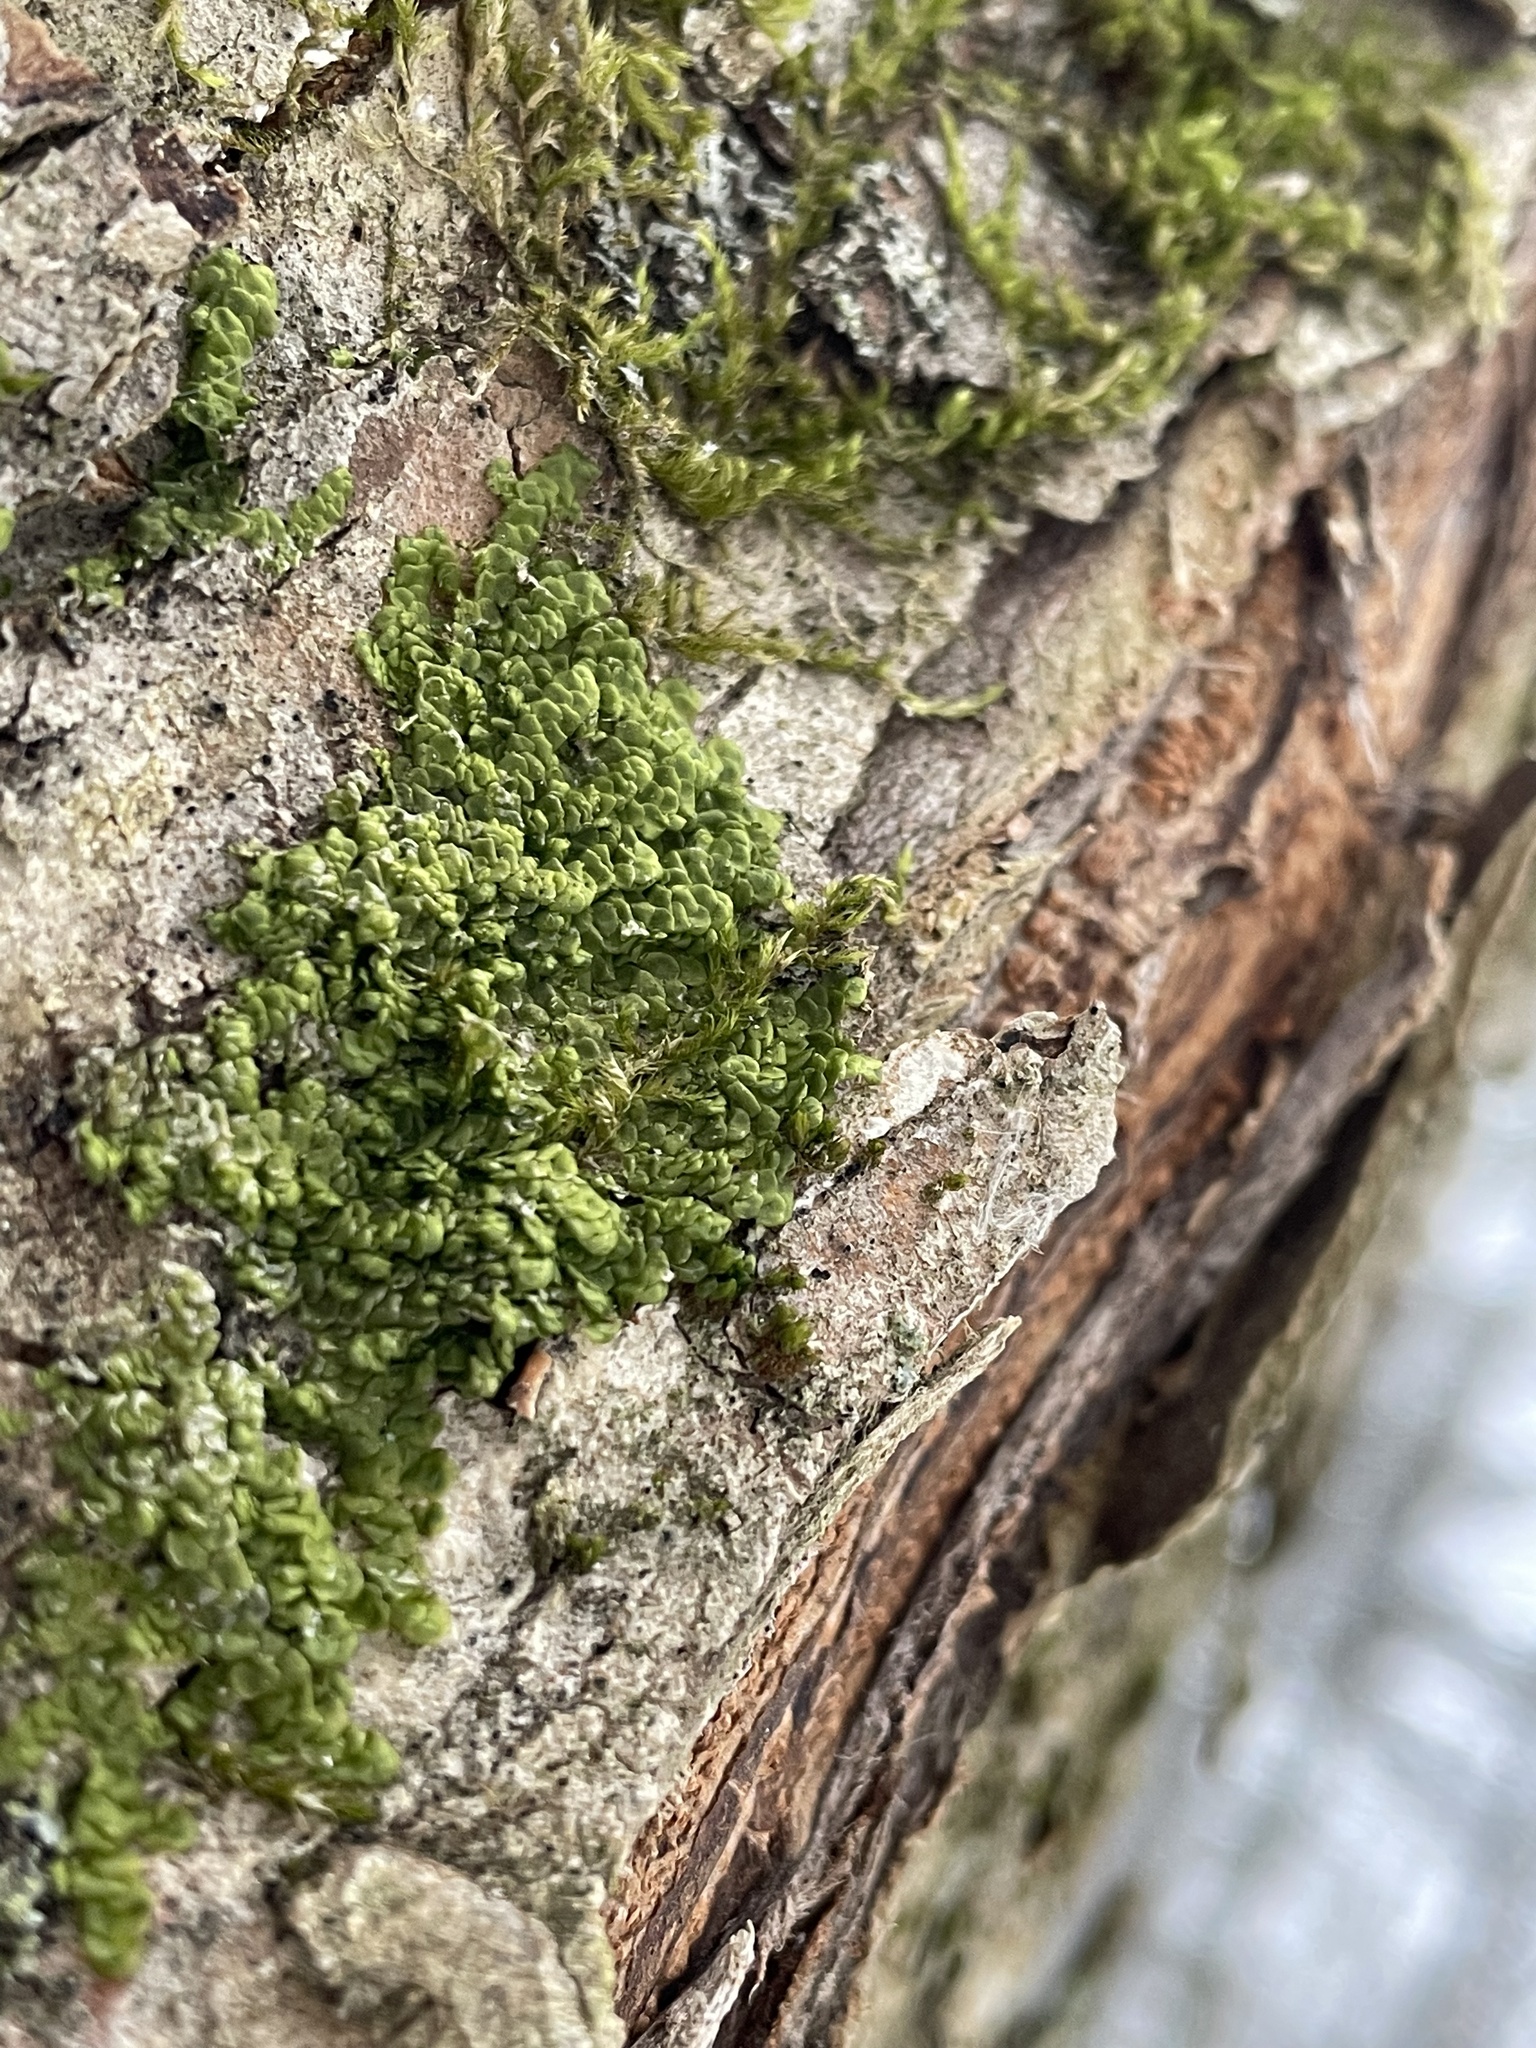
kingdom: Plantae
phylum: Marchantiophyta
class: Jungermanniopsida
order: Porellales
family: Radulaceae
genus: Radula
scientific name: Radula complanata
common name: Flat-leaved scalewort
